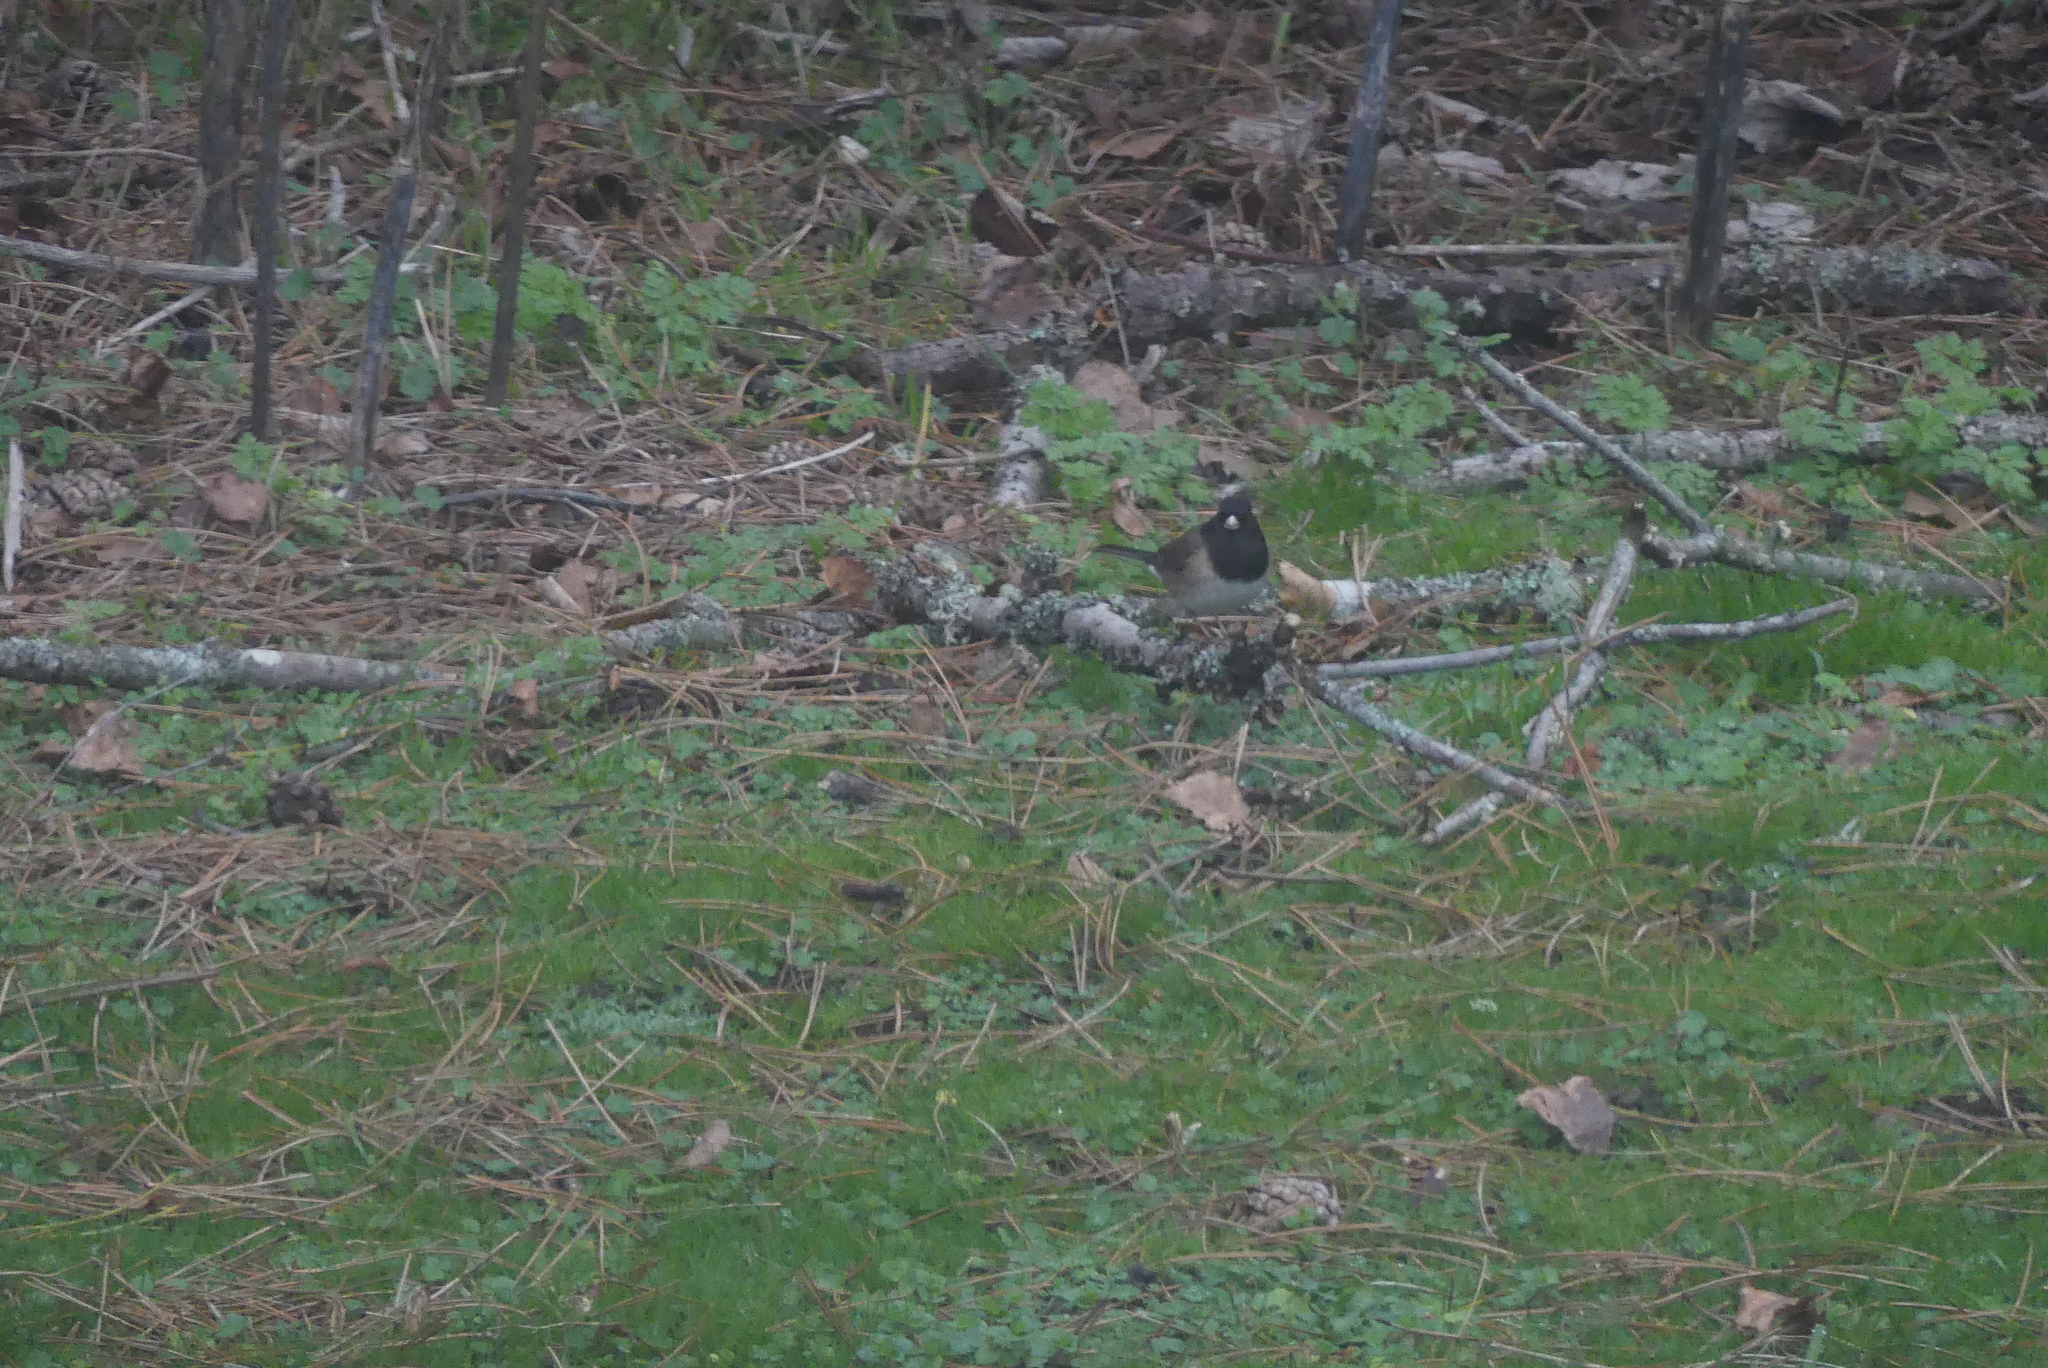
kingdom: Animalia
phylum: Chordata
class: Aves
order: Passeriformes
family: Passerellidae
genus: Junco
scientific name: Junco hyemalis
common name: Dark-eyed junco
